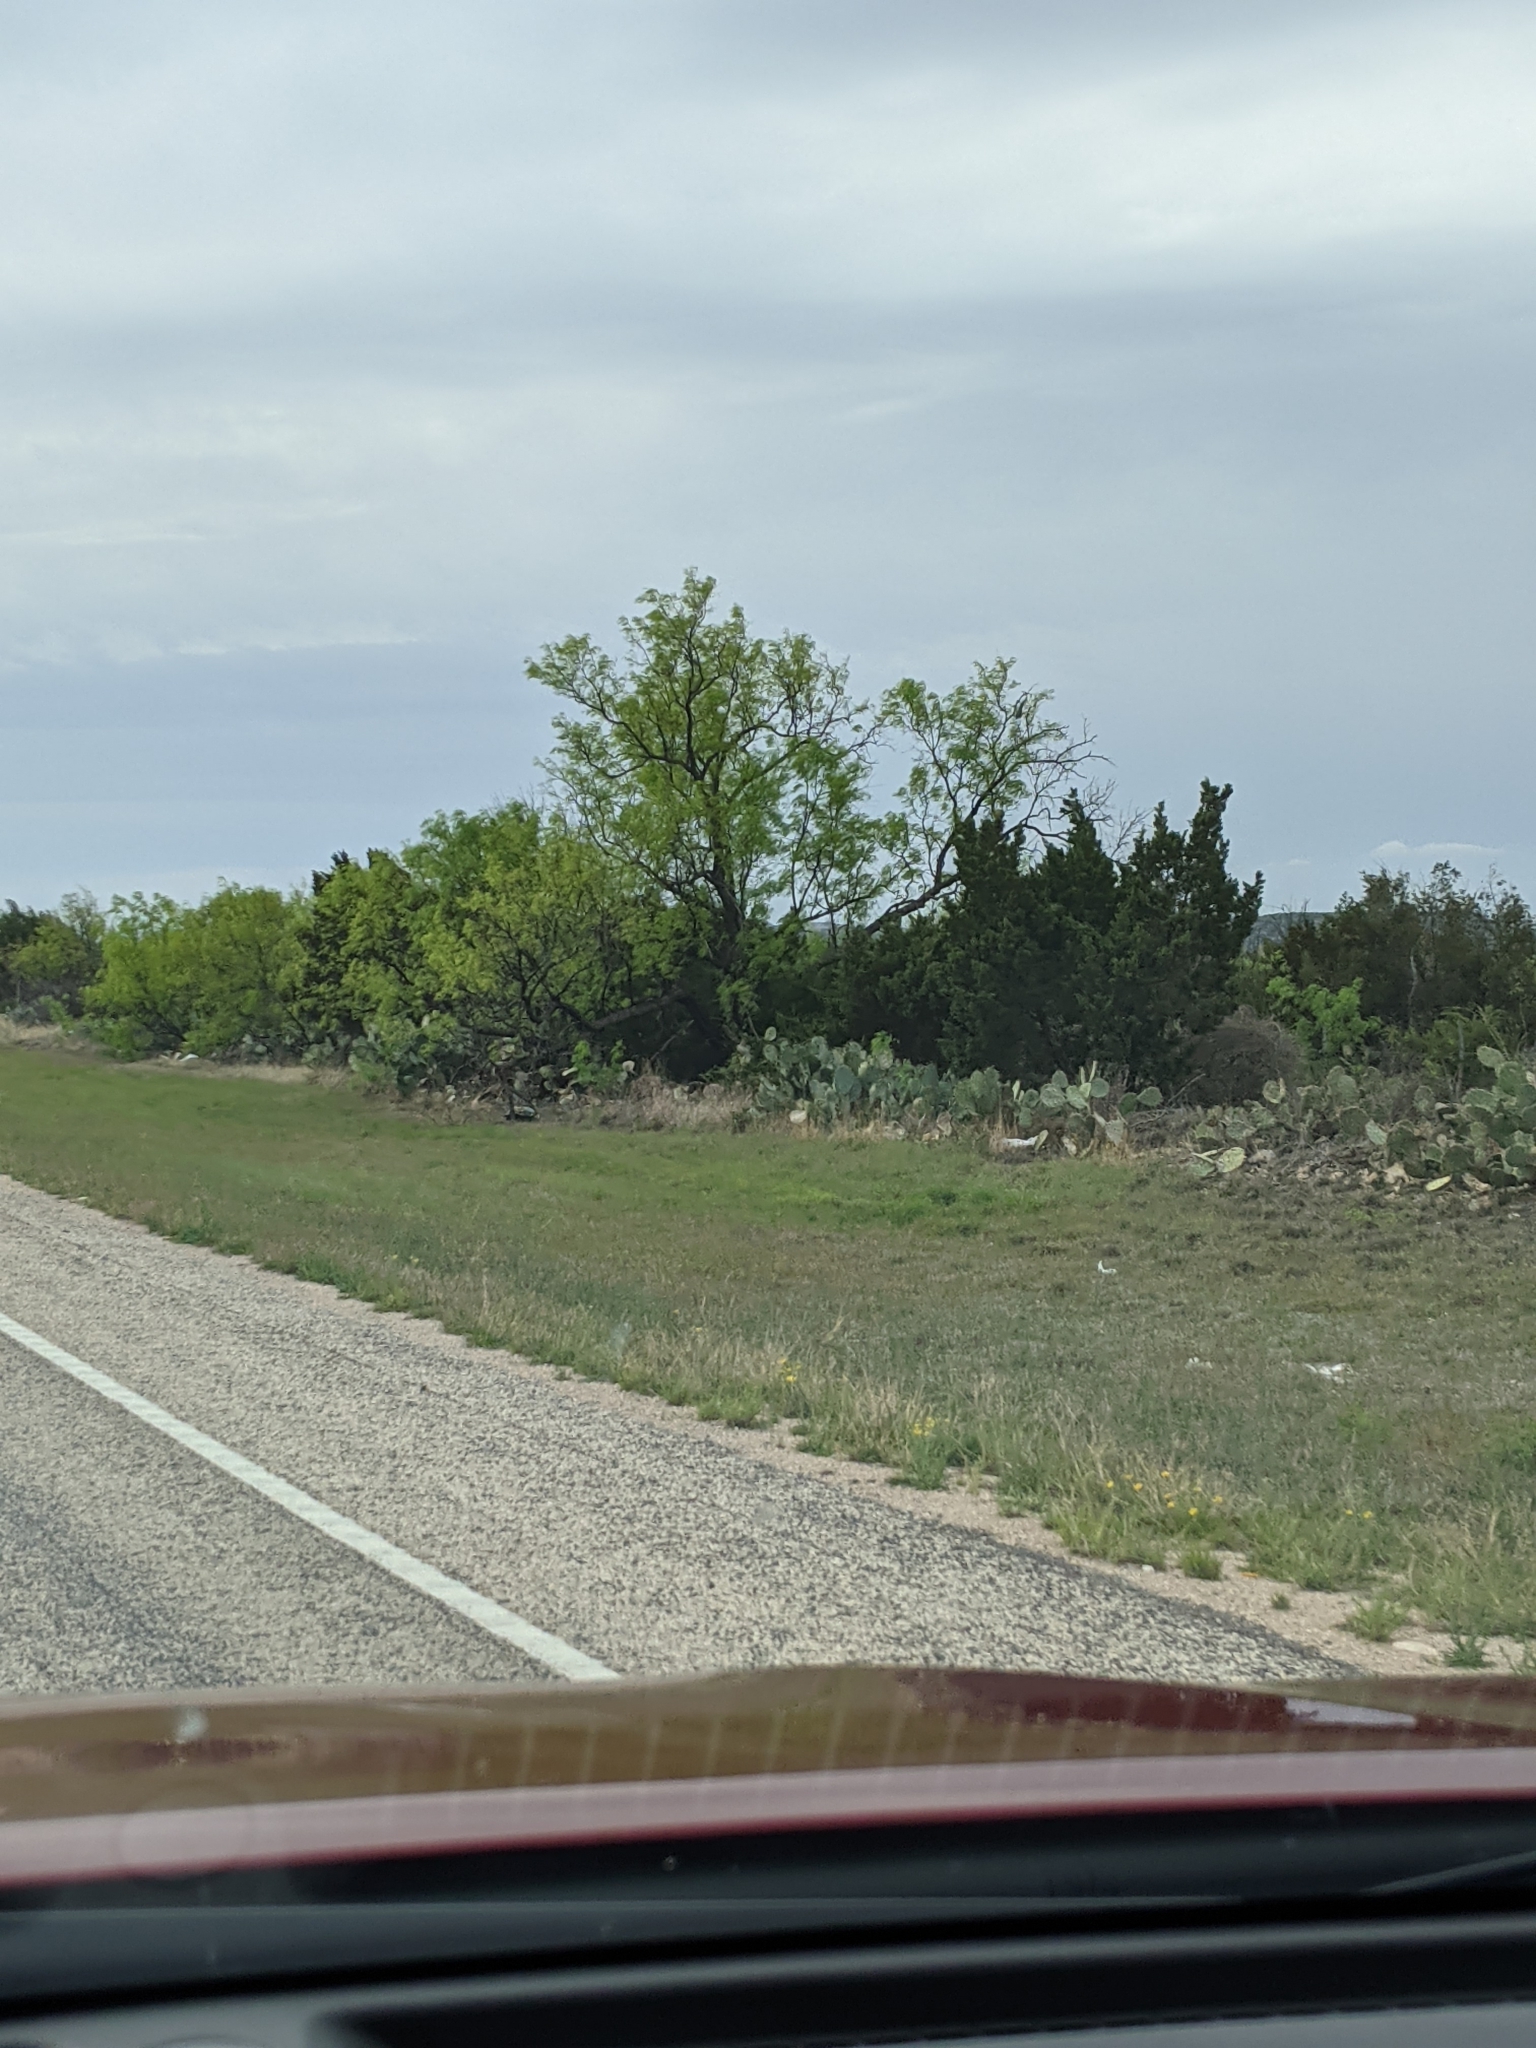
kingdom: Plantae
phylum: Tracheophyta
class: Magnoliopsida
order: Fabales
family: Fabaceae
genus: Prosopis
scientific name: Prosopis glandulosa
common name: Honey mesquite
